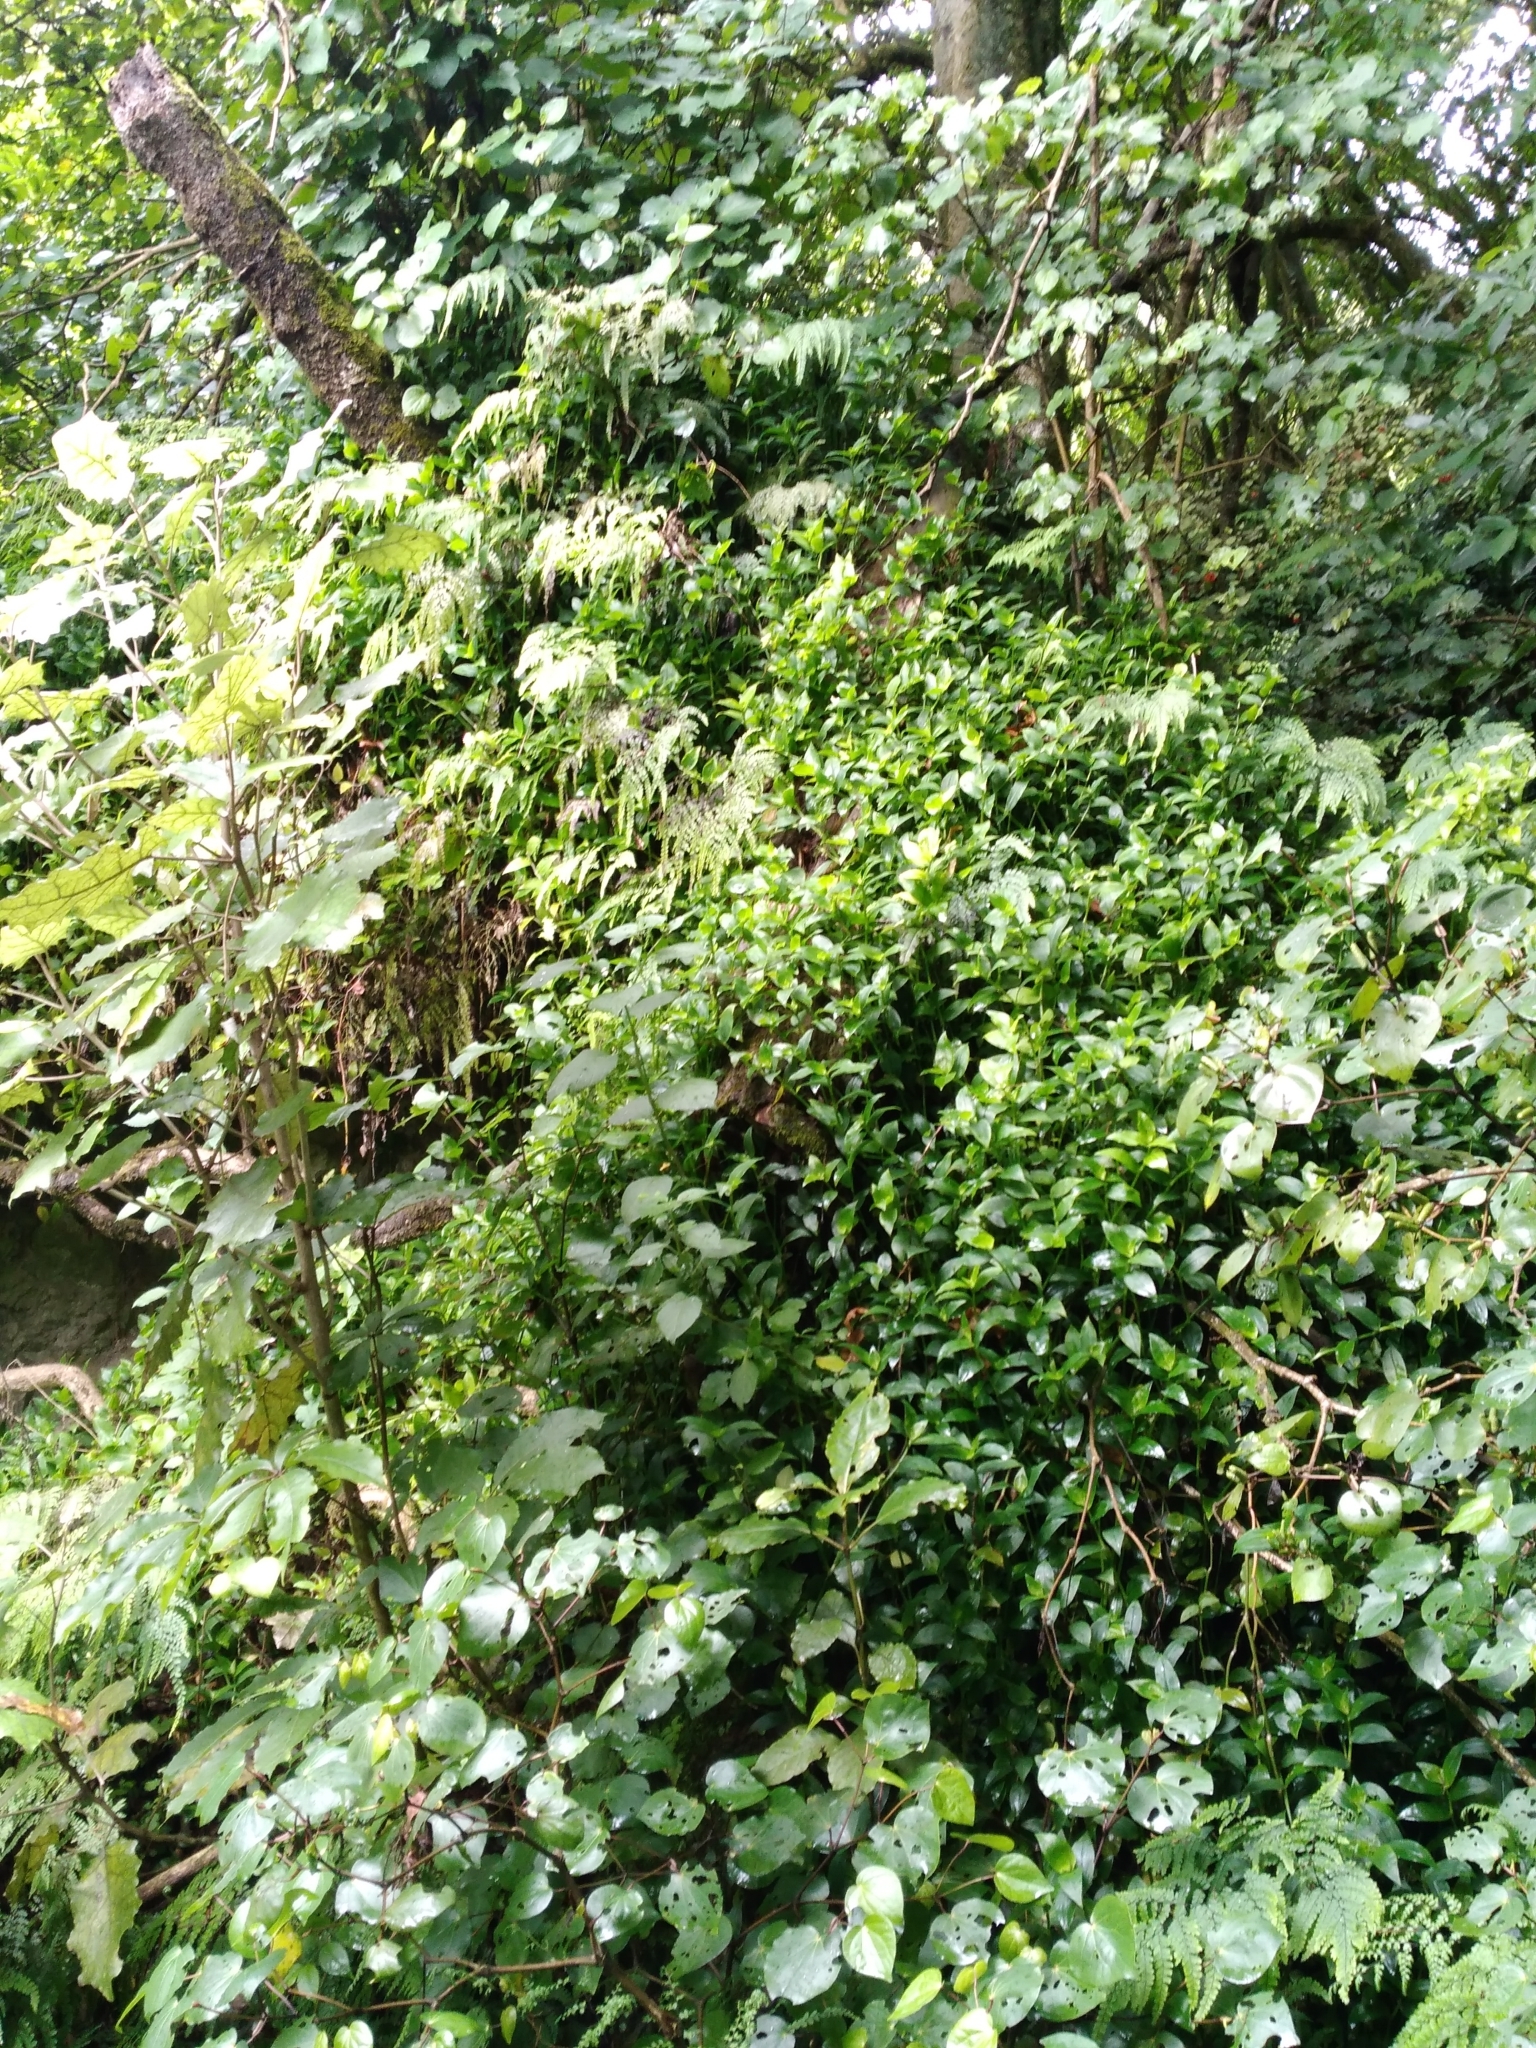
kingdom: Plantae
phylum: Tracheophyta
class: Polypodiopsida
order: Polypodiales
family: Pteridaceae
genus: Adiantum
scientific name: Adiantum formosum
